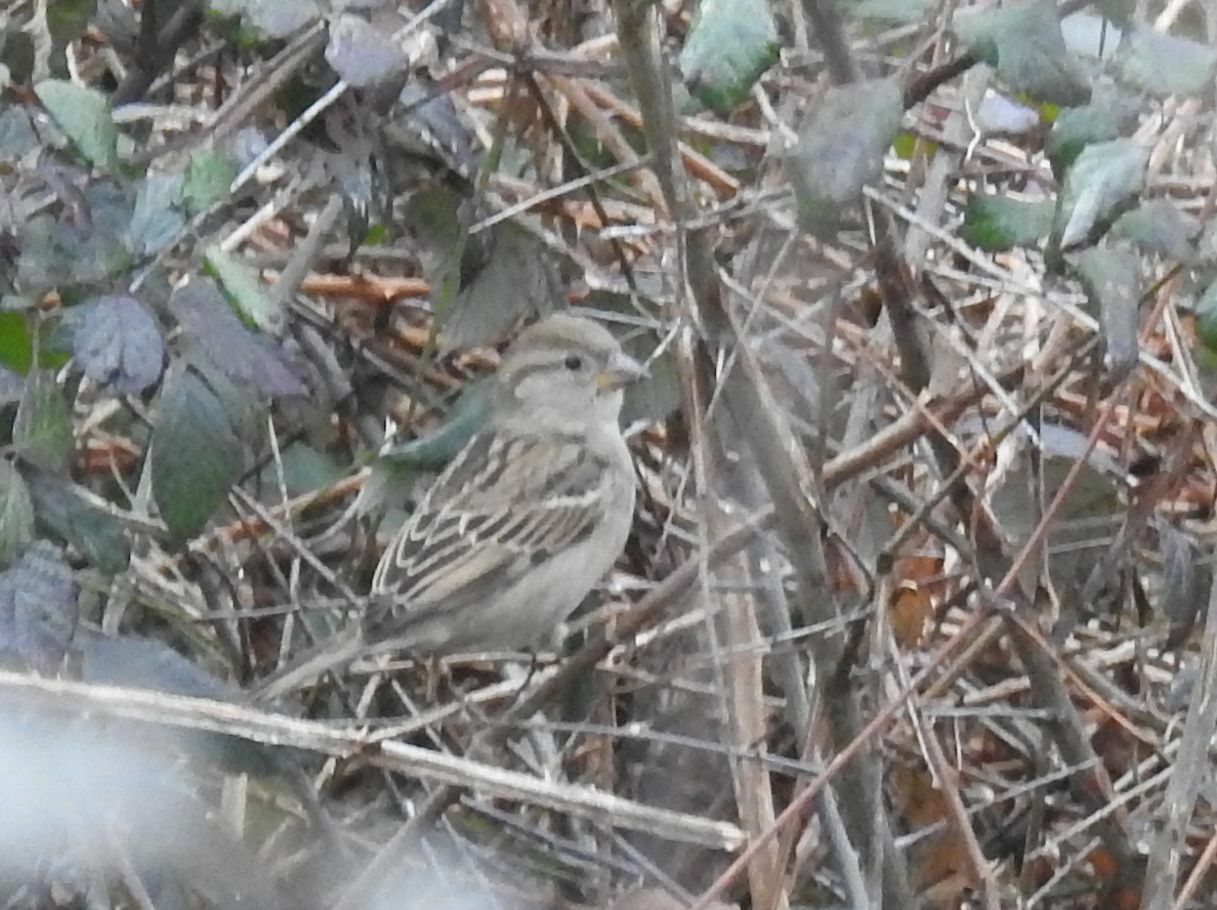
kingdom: Animalia
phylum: Chordata
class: Aves
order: Passeriformes
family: Passeridae
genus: Passer
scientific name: Passer domesticus
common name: House sparrow
